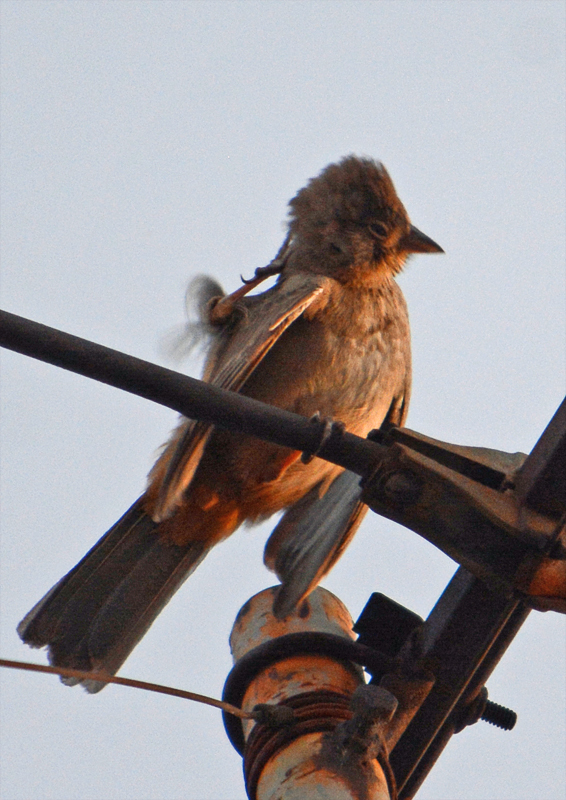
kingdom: Animalia
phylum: Chordata
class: Aves
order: Passeriformes
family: Passerellidae
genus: Melozone
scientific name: Melozone fusca
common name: Canyon towhee
